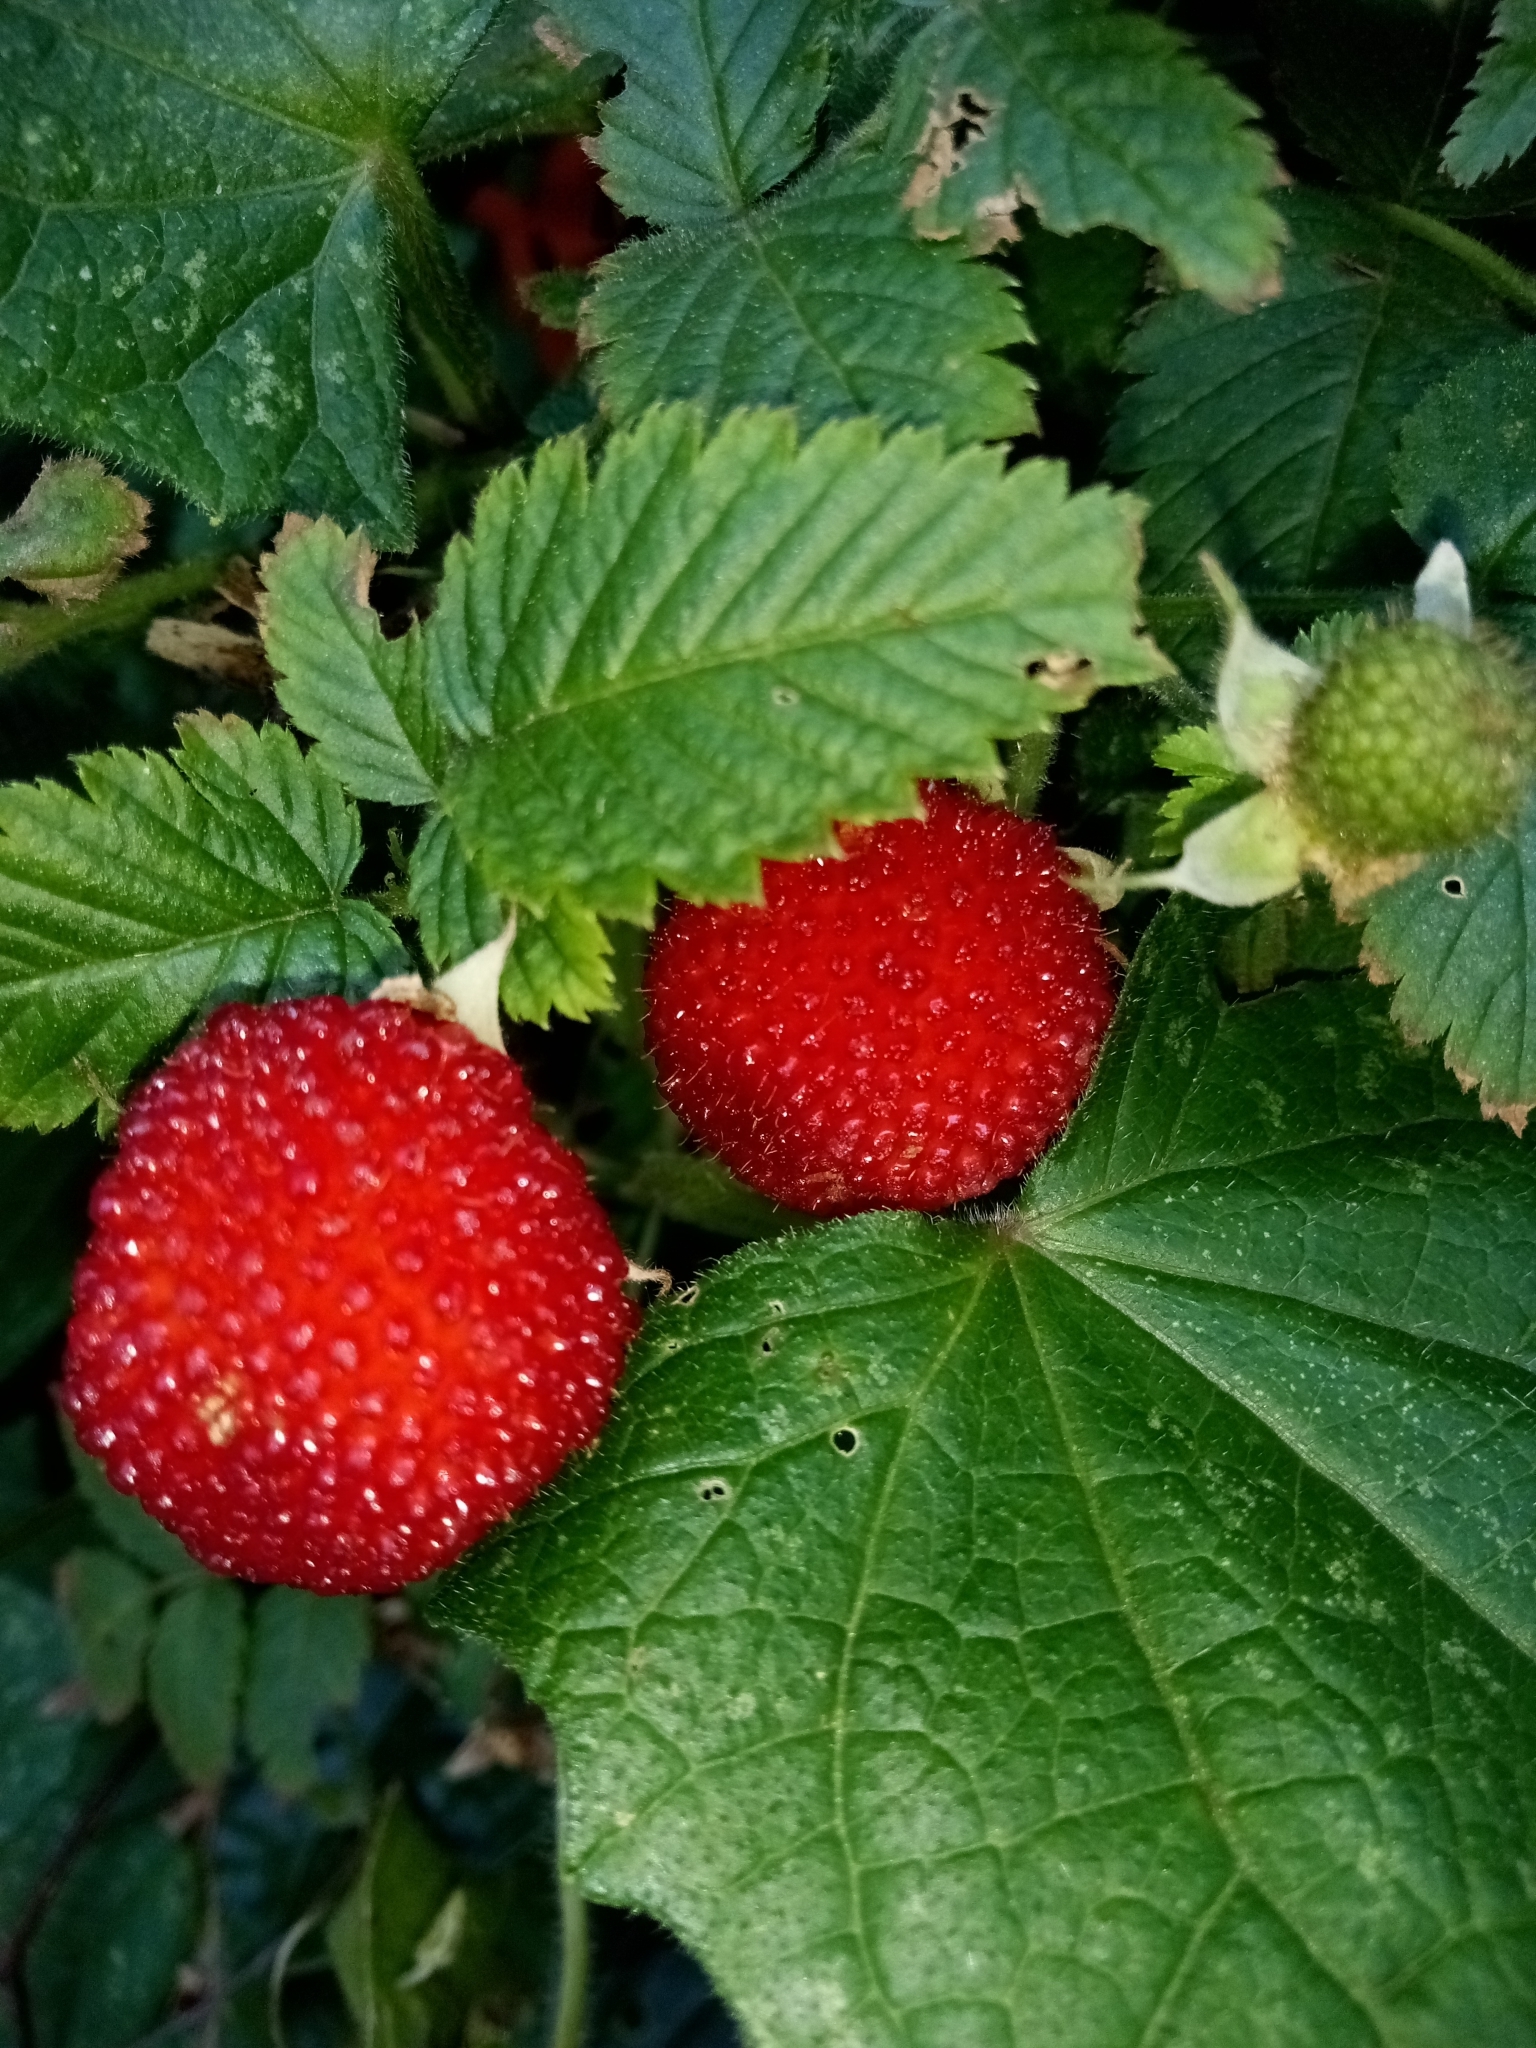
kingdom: Plantae
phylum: Tracheophyta
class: Magnoliopsida
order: Rosales
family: Rosaceae
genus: Rubus
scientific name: Rubus rosifolius
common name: Roseleaf raspberry
